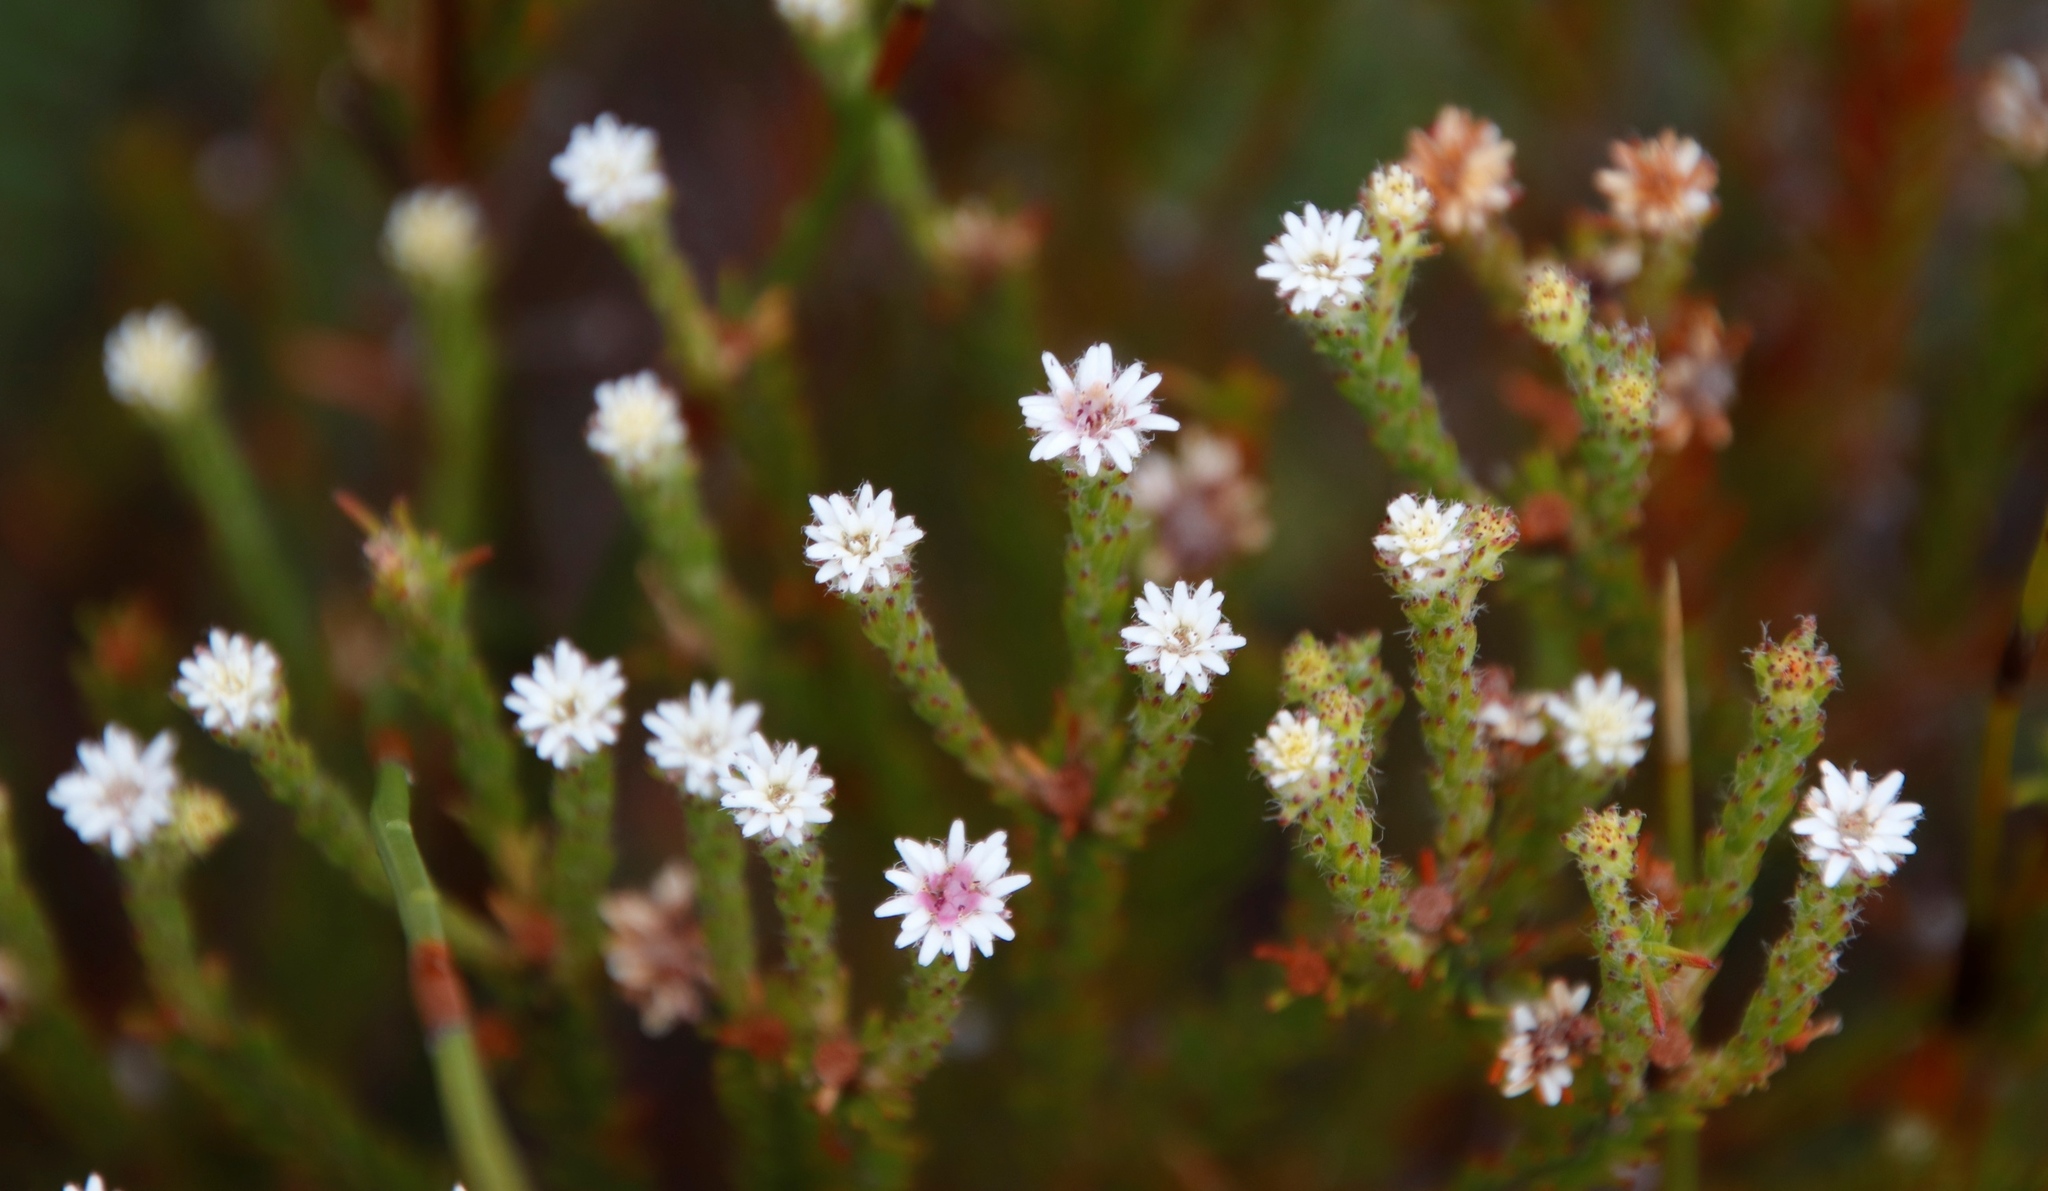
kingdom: Plantae
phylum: Tracheophyta
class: Magnoliopsida
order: Bruniales
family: Bruniaceae
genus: Staavia
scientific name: Staavia radiata
